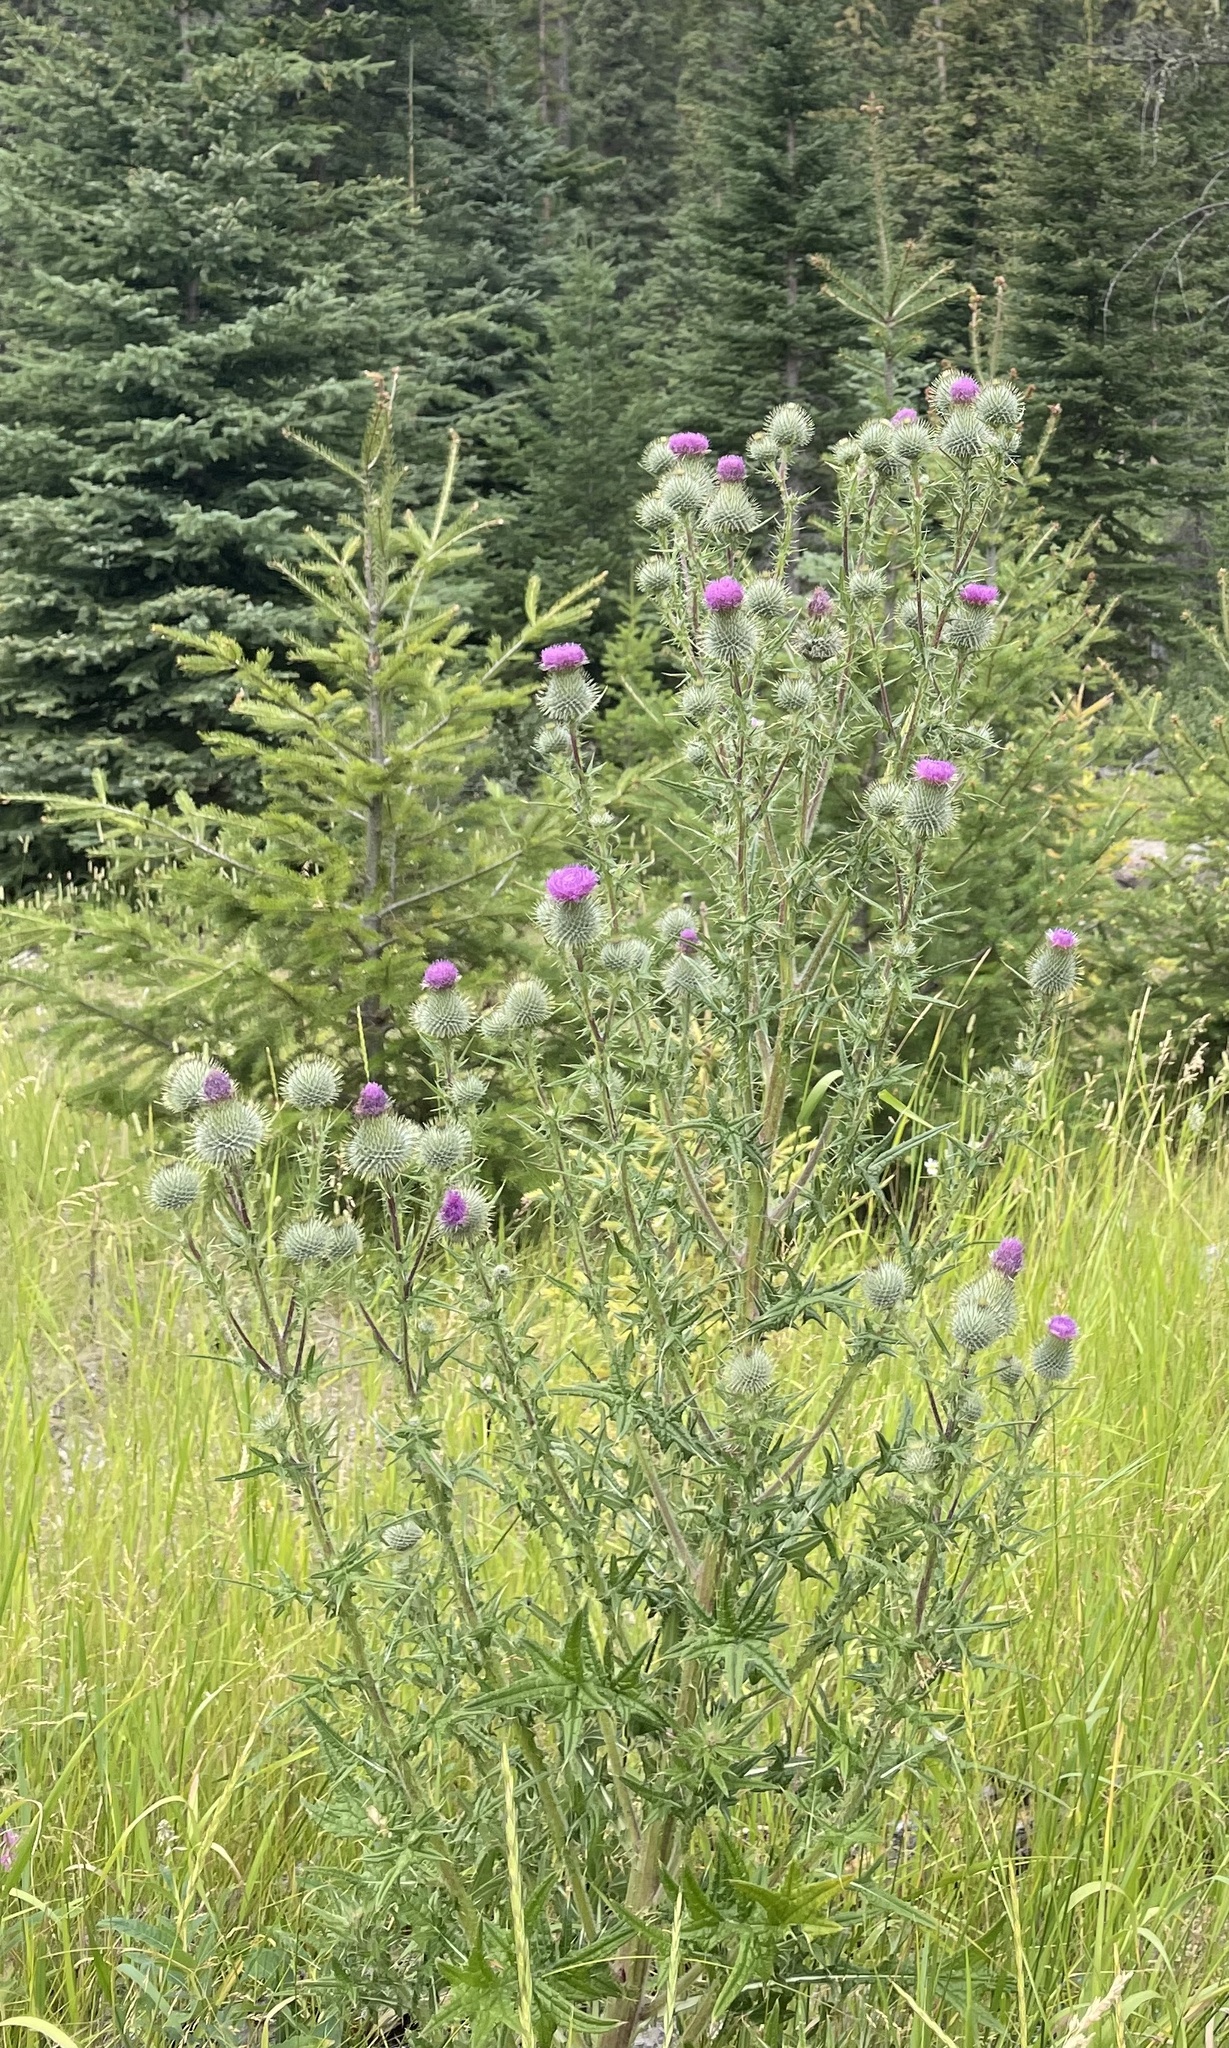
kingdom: Plantae
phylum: Tracheophyta
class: Magnoliopsida
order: Asterales
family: Asteraceae
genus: Cirsium
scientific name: Cirsium vulgare
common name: Bull thistle
